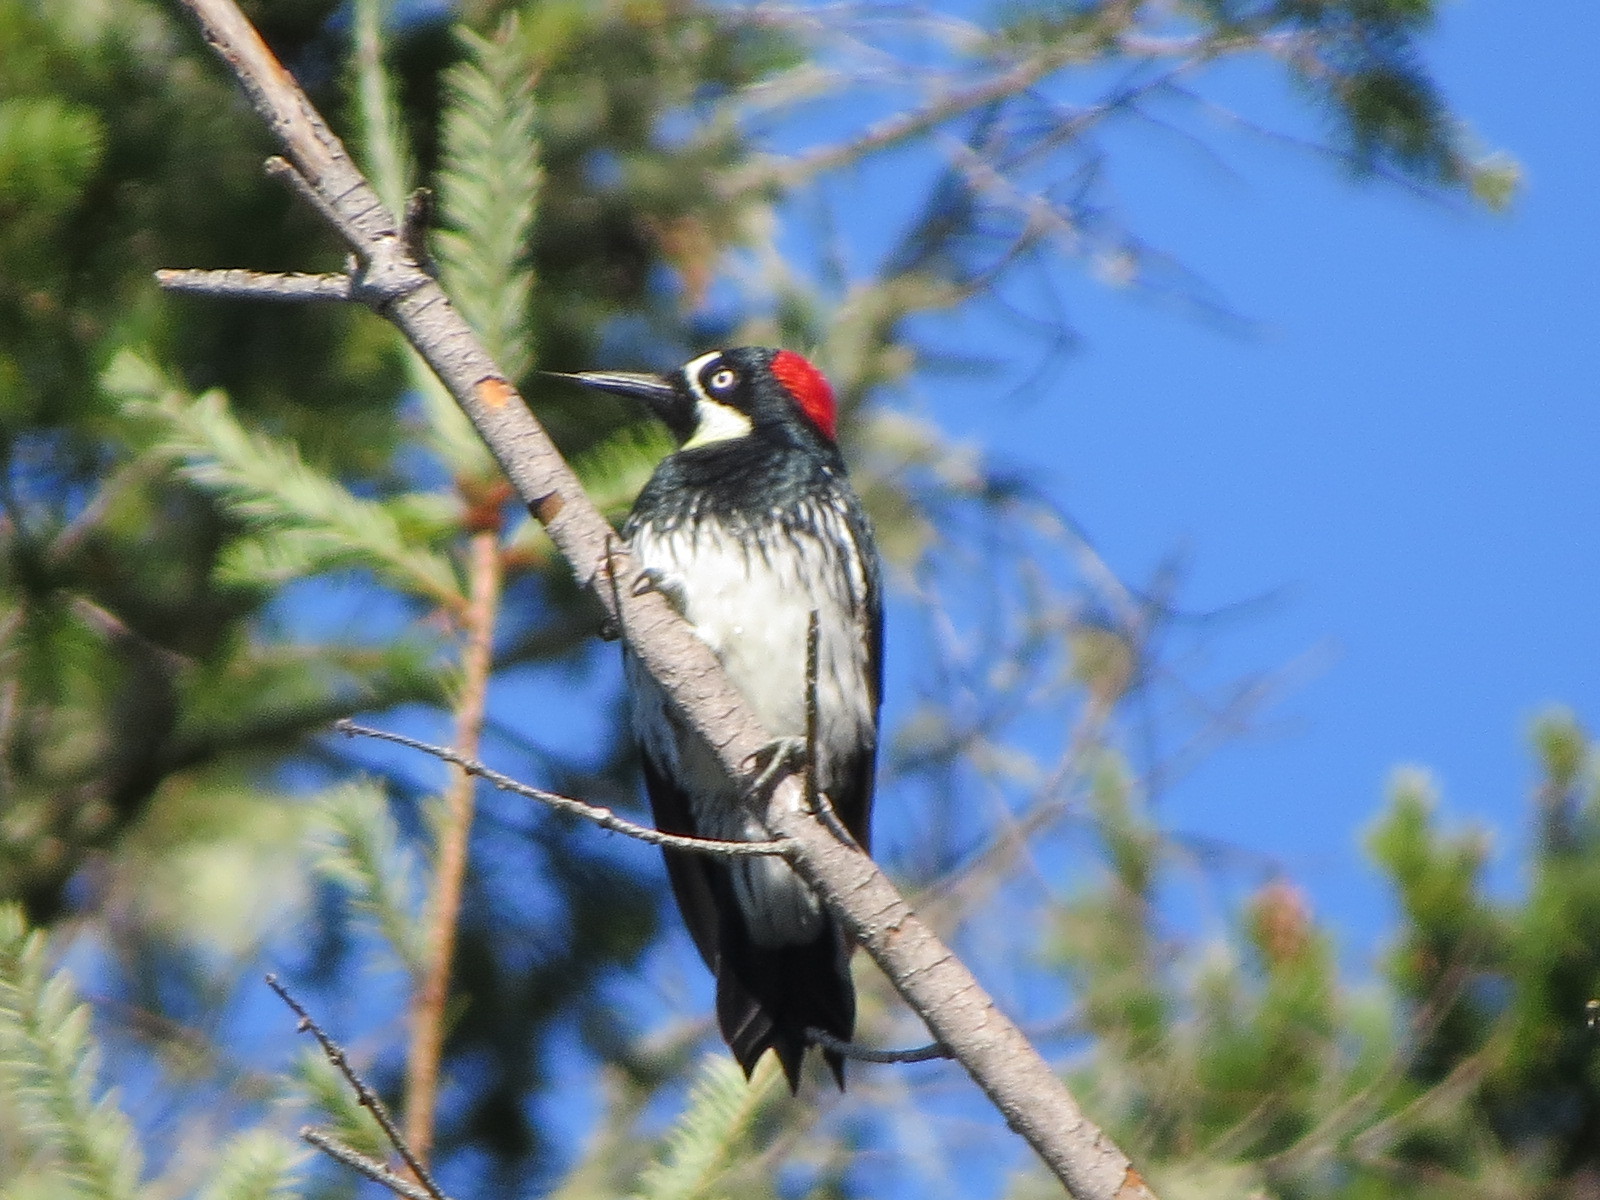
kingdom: Animalia
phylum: Chordata
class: Aves
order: Piciformes
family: Picidae
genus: Melanerpes
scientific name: Melanerpes formicivorus
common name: Acorn woodpecker
